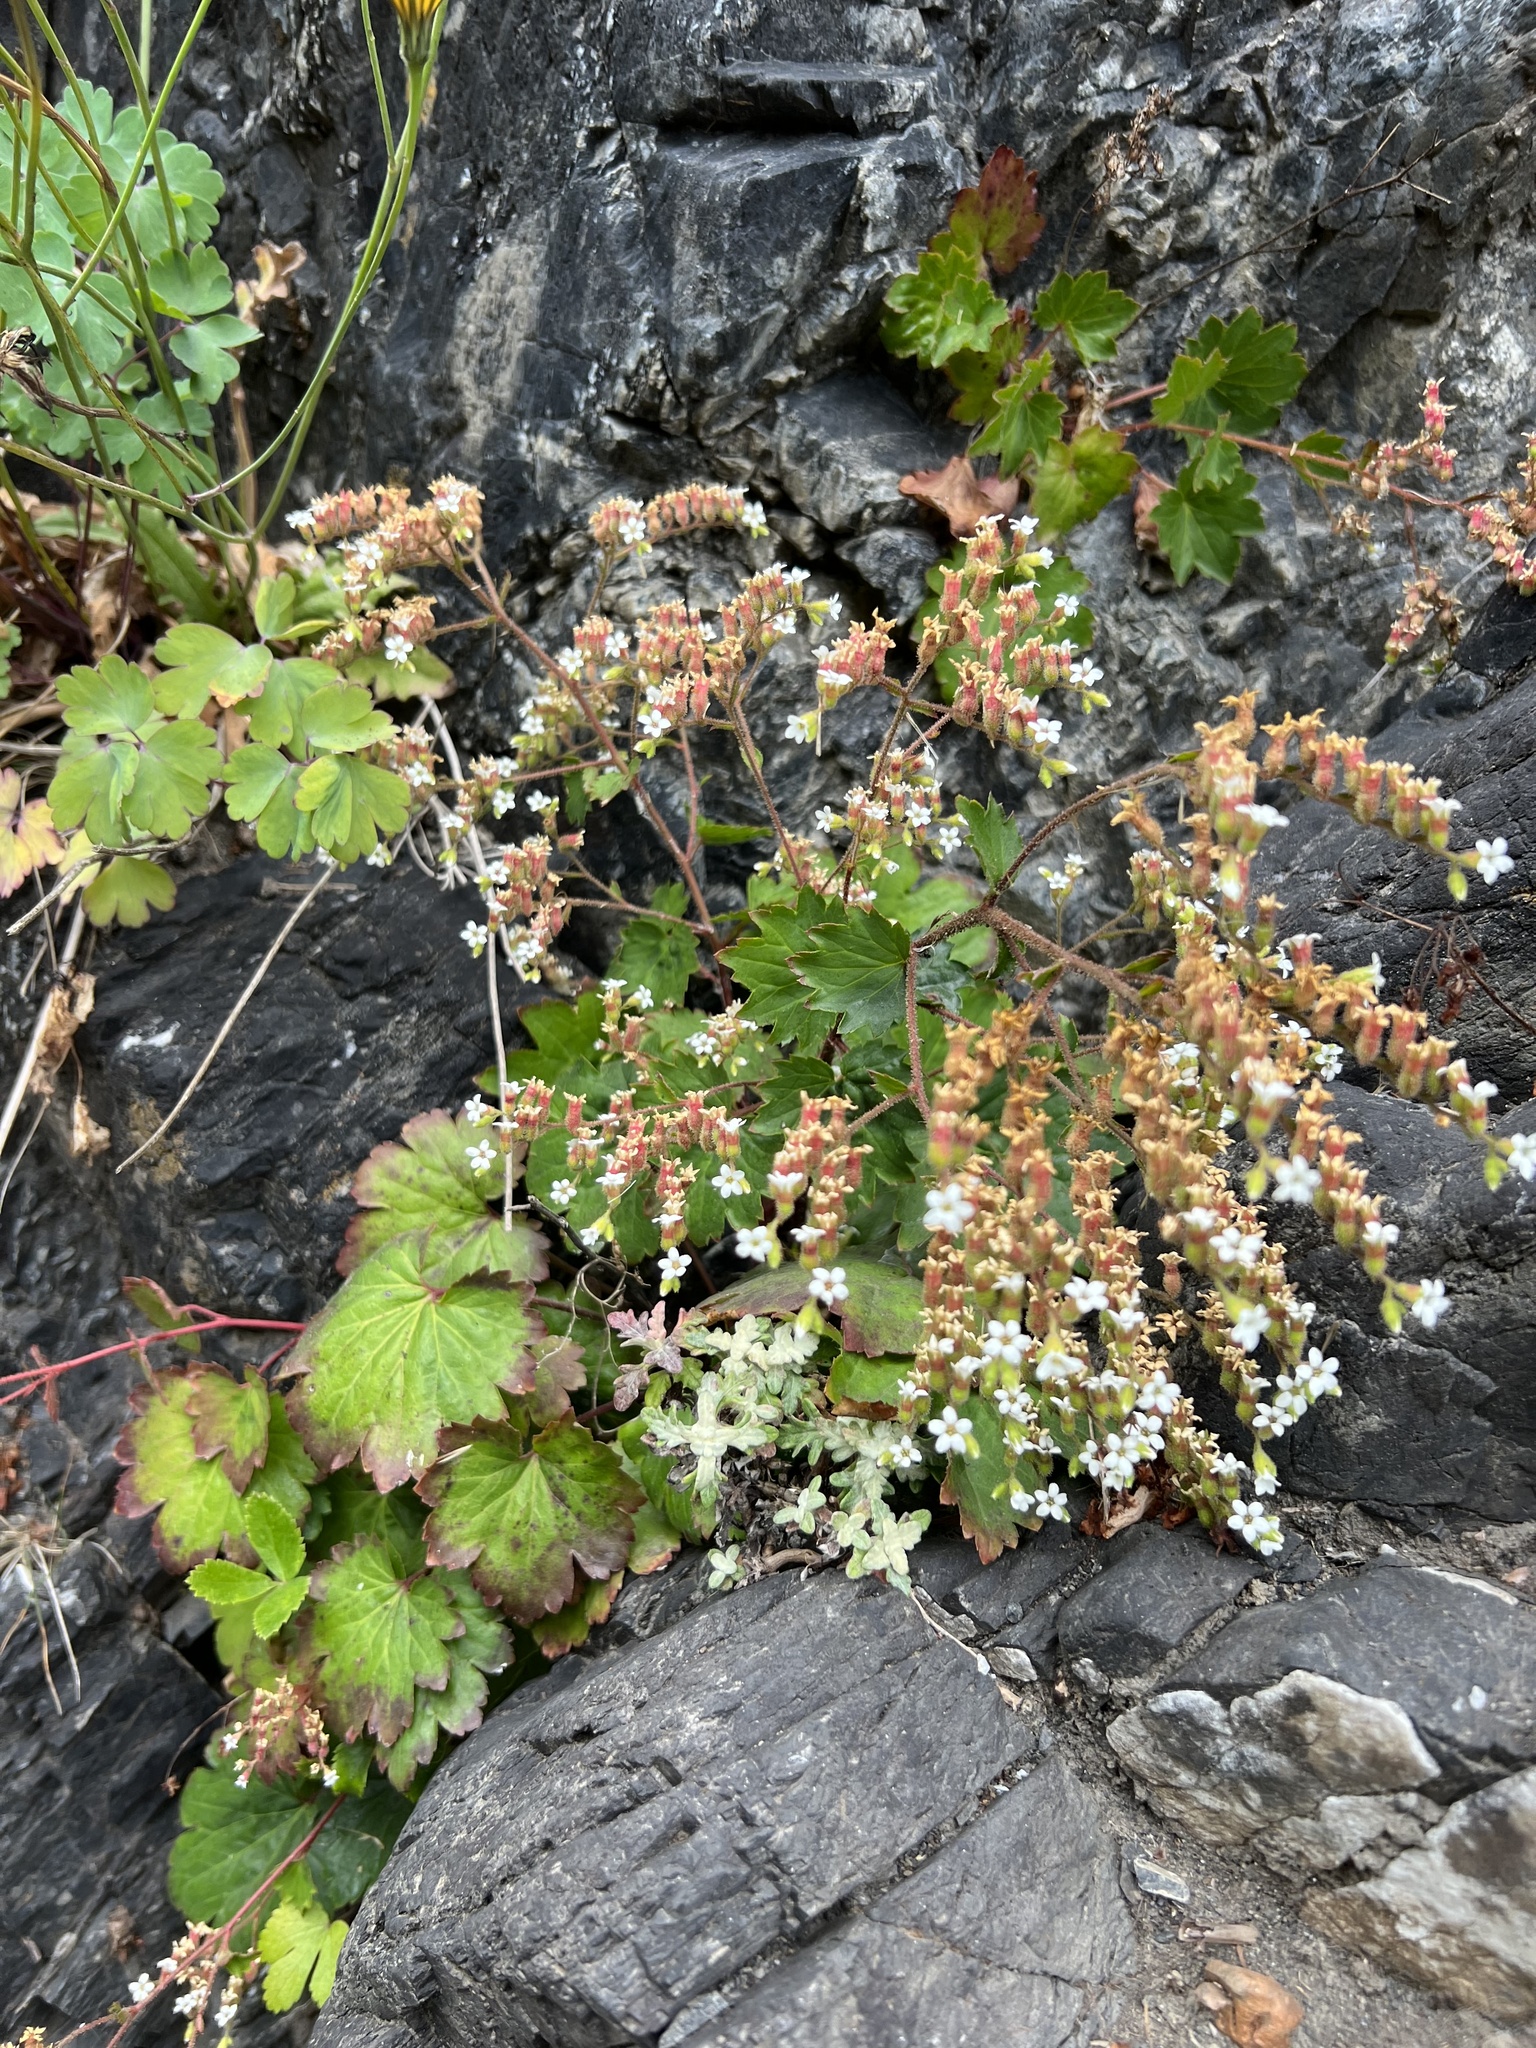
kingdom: Plantae
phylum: Tracheophyta
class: Magnoliopsida
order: Saxifragales
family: Saxifragaceae
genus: Boykinia
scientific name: Boykinia occidentalis
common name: Coast boykinia
